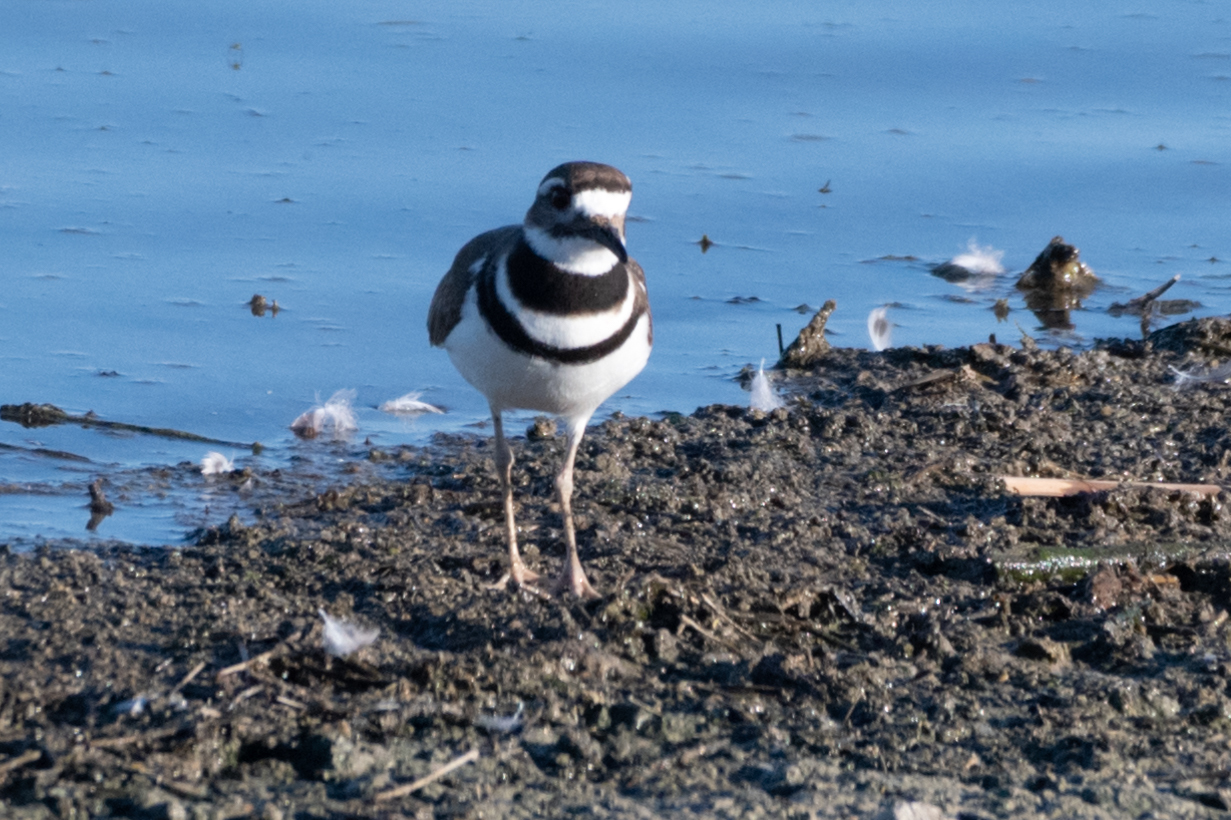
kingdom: Animalia
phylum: Chordata
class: Aves
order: Charadriiformes
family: Charadriidae
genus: Charadrius
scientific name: Charadrius vociferus
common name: Killdeer
